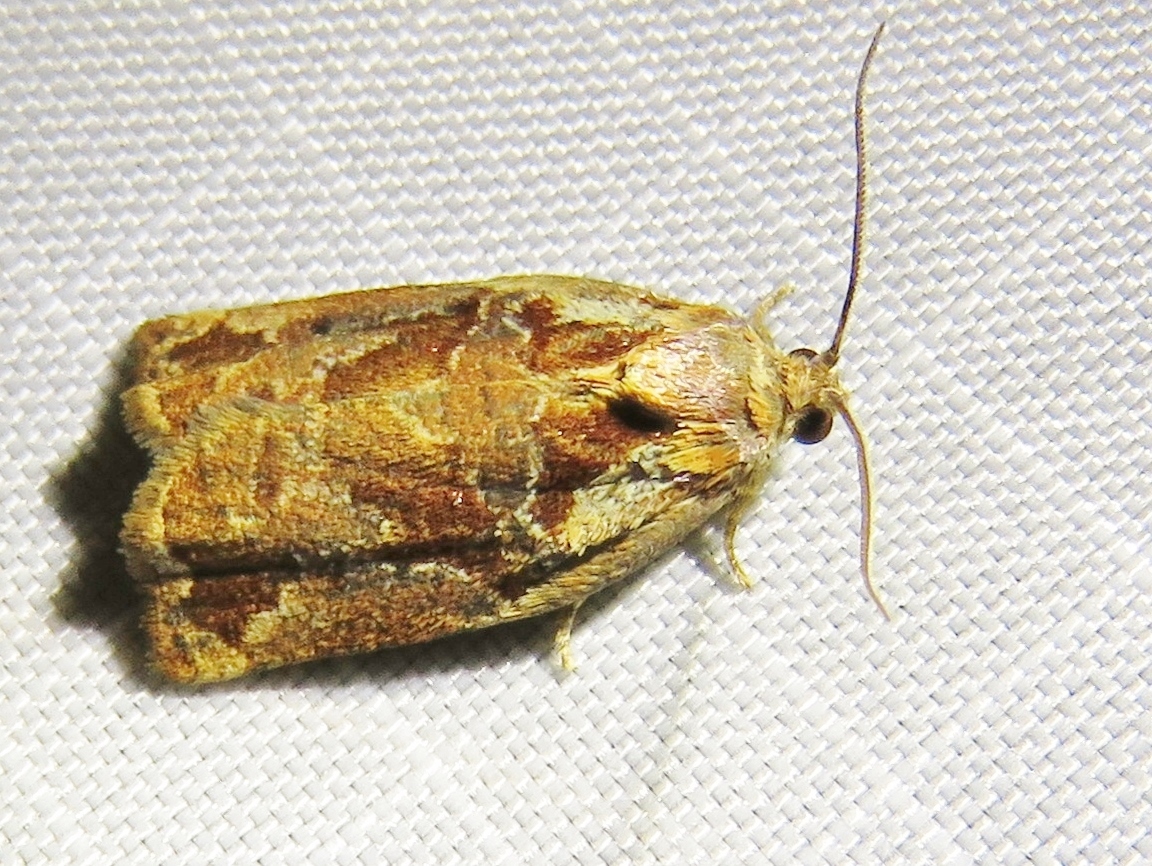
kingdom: Animalia
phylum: Arthropoda
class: Insecta
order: Lepidoptera
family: Tortricidae
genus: Archips
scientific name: Archips oporana
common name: Sprice tortrix moth
